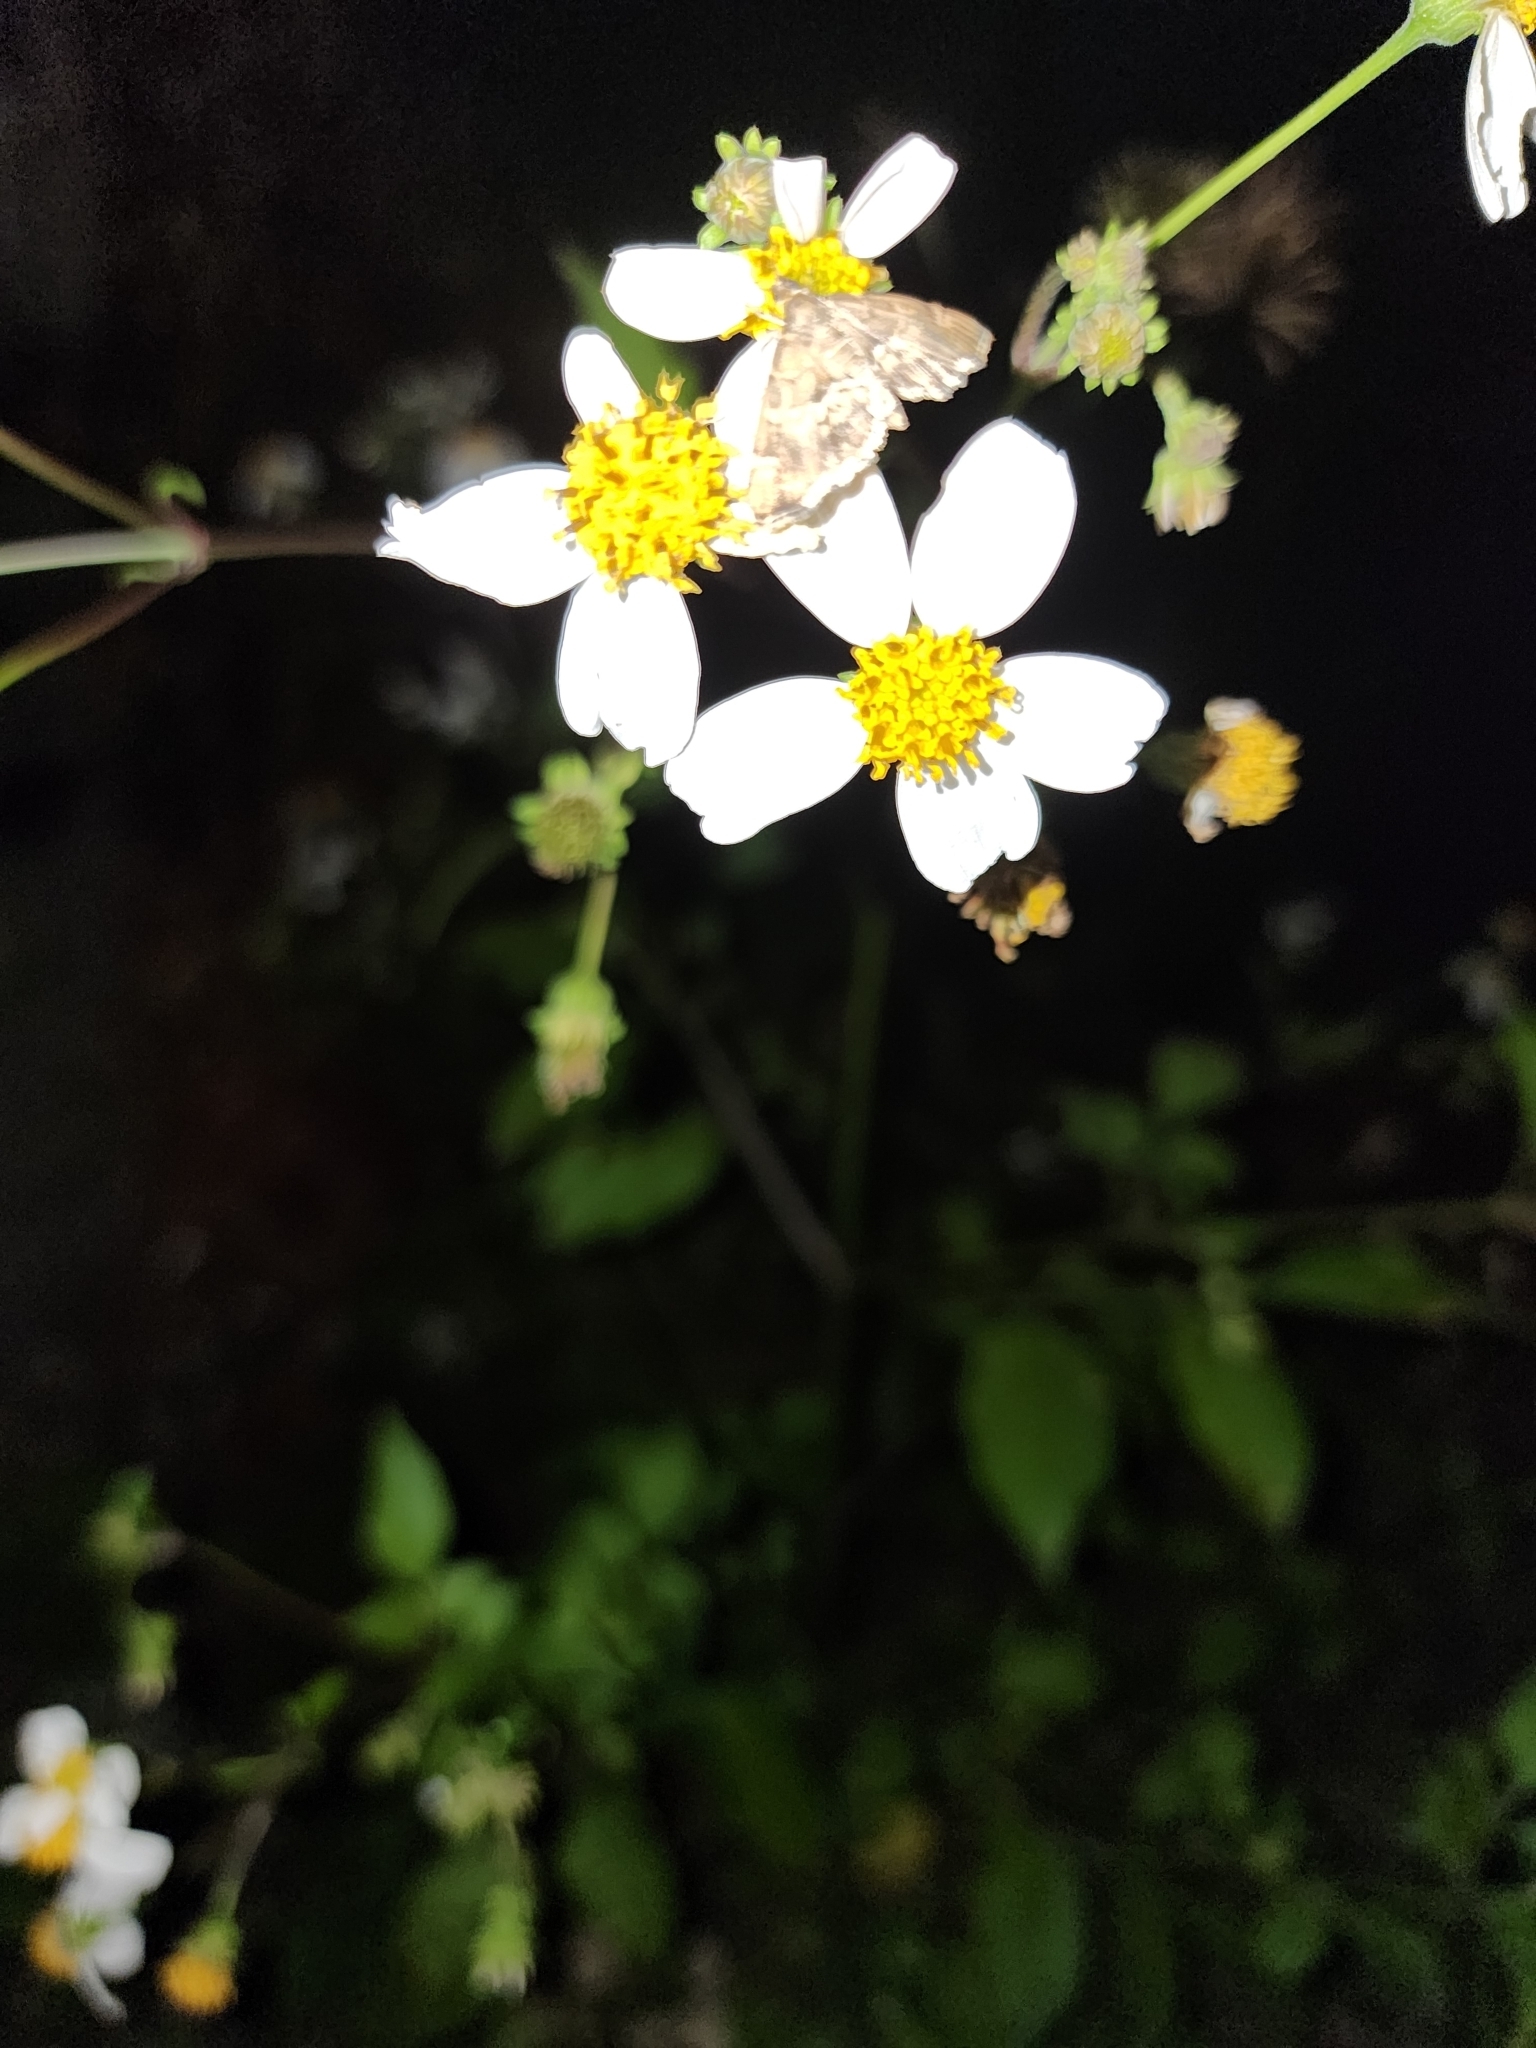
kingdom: Animalia
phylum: Arthropoda
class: Insecta
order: Lepidoptera
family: Crambidae
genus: Hymenia
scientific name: Hymenia perspectalis
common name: Spotted beet webworm
